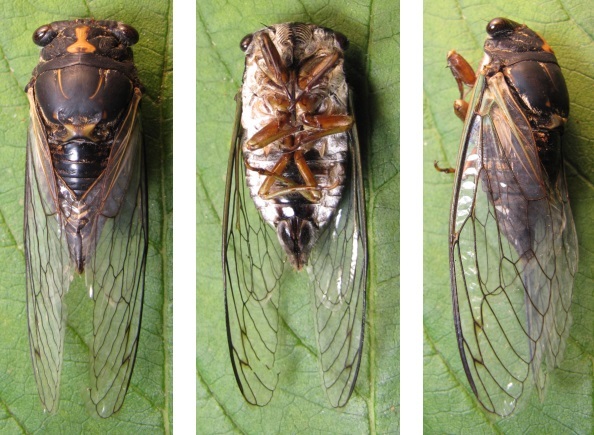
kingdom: Animalia
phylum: Arthropoda
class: Insecta
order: Hemiptera
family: Cicadidae
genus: Neotibicen
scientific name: Neotibicen lyricen
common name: Lyric cicada
